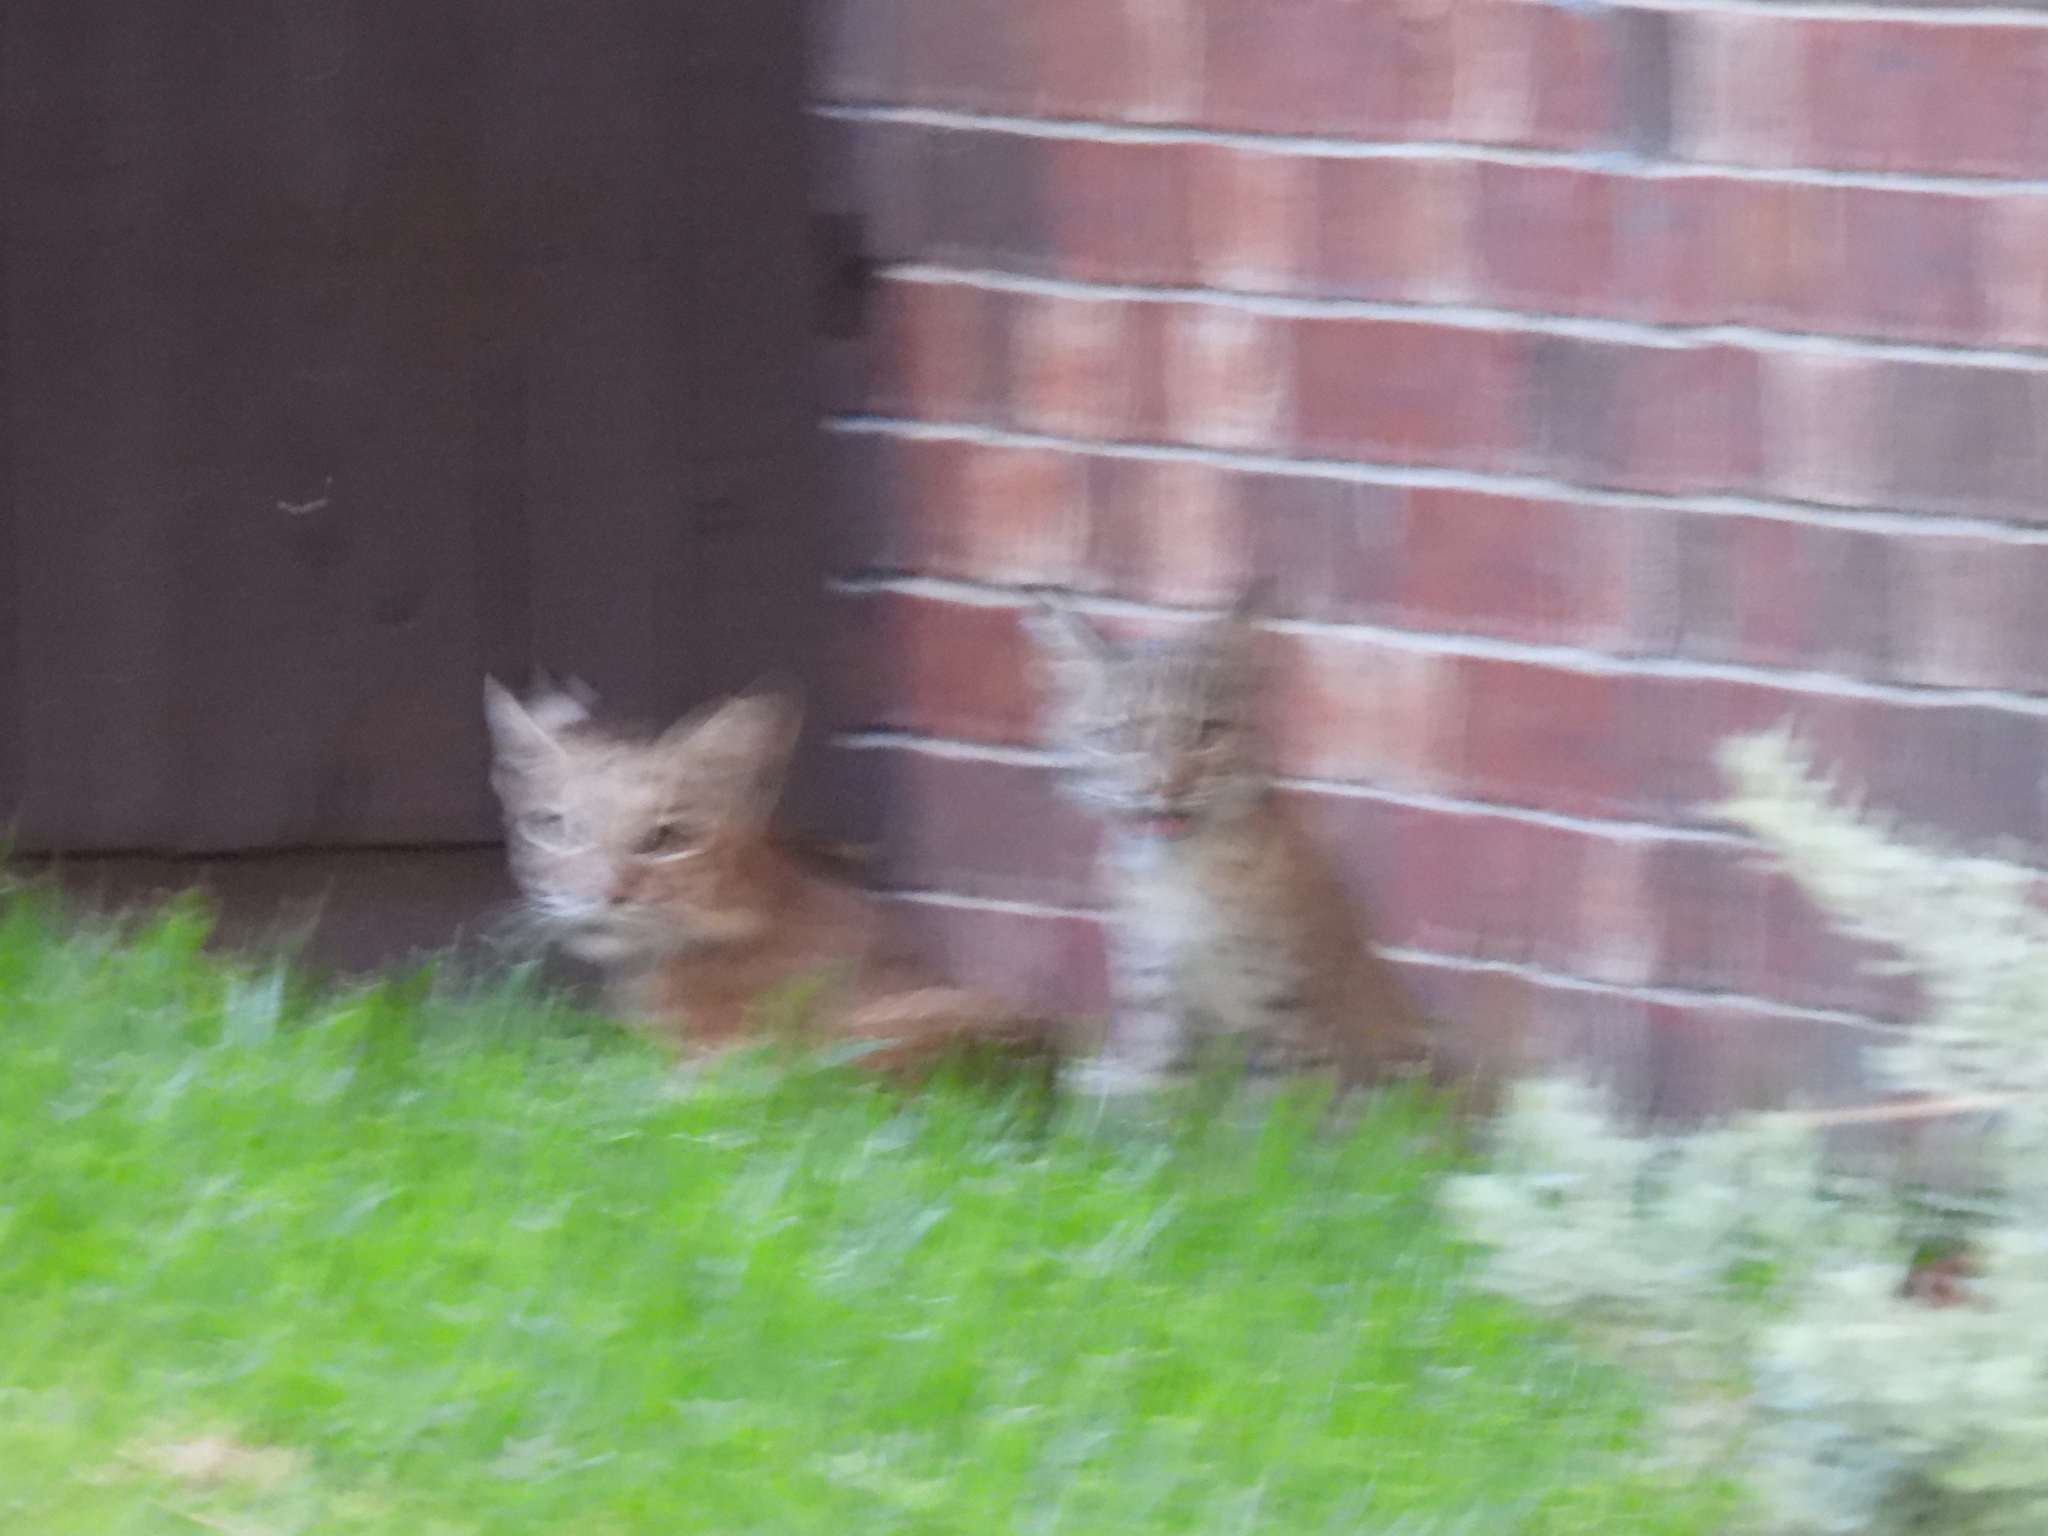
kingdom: Animalia
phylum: Chordata
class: Mammalia
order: Carnivora
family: Felidae
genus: Lynx
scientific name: Lynx rufus
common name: Bobcat
